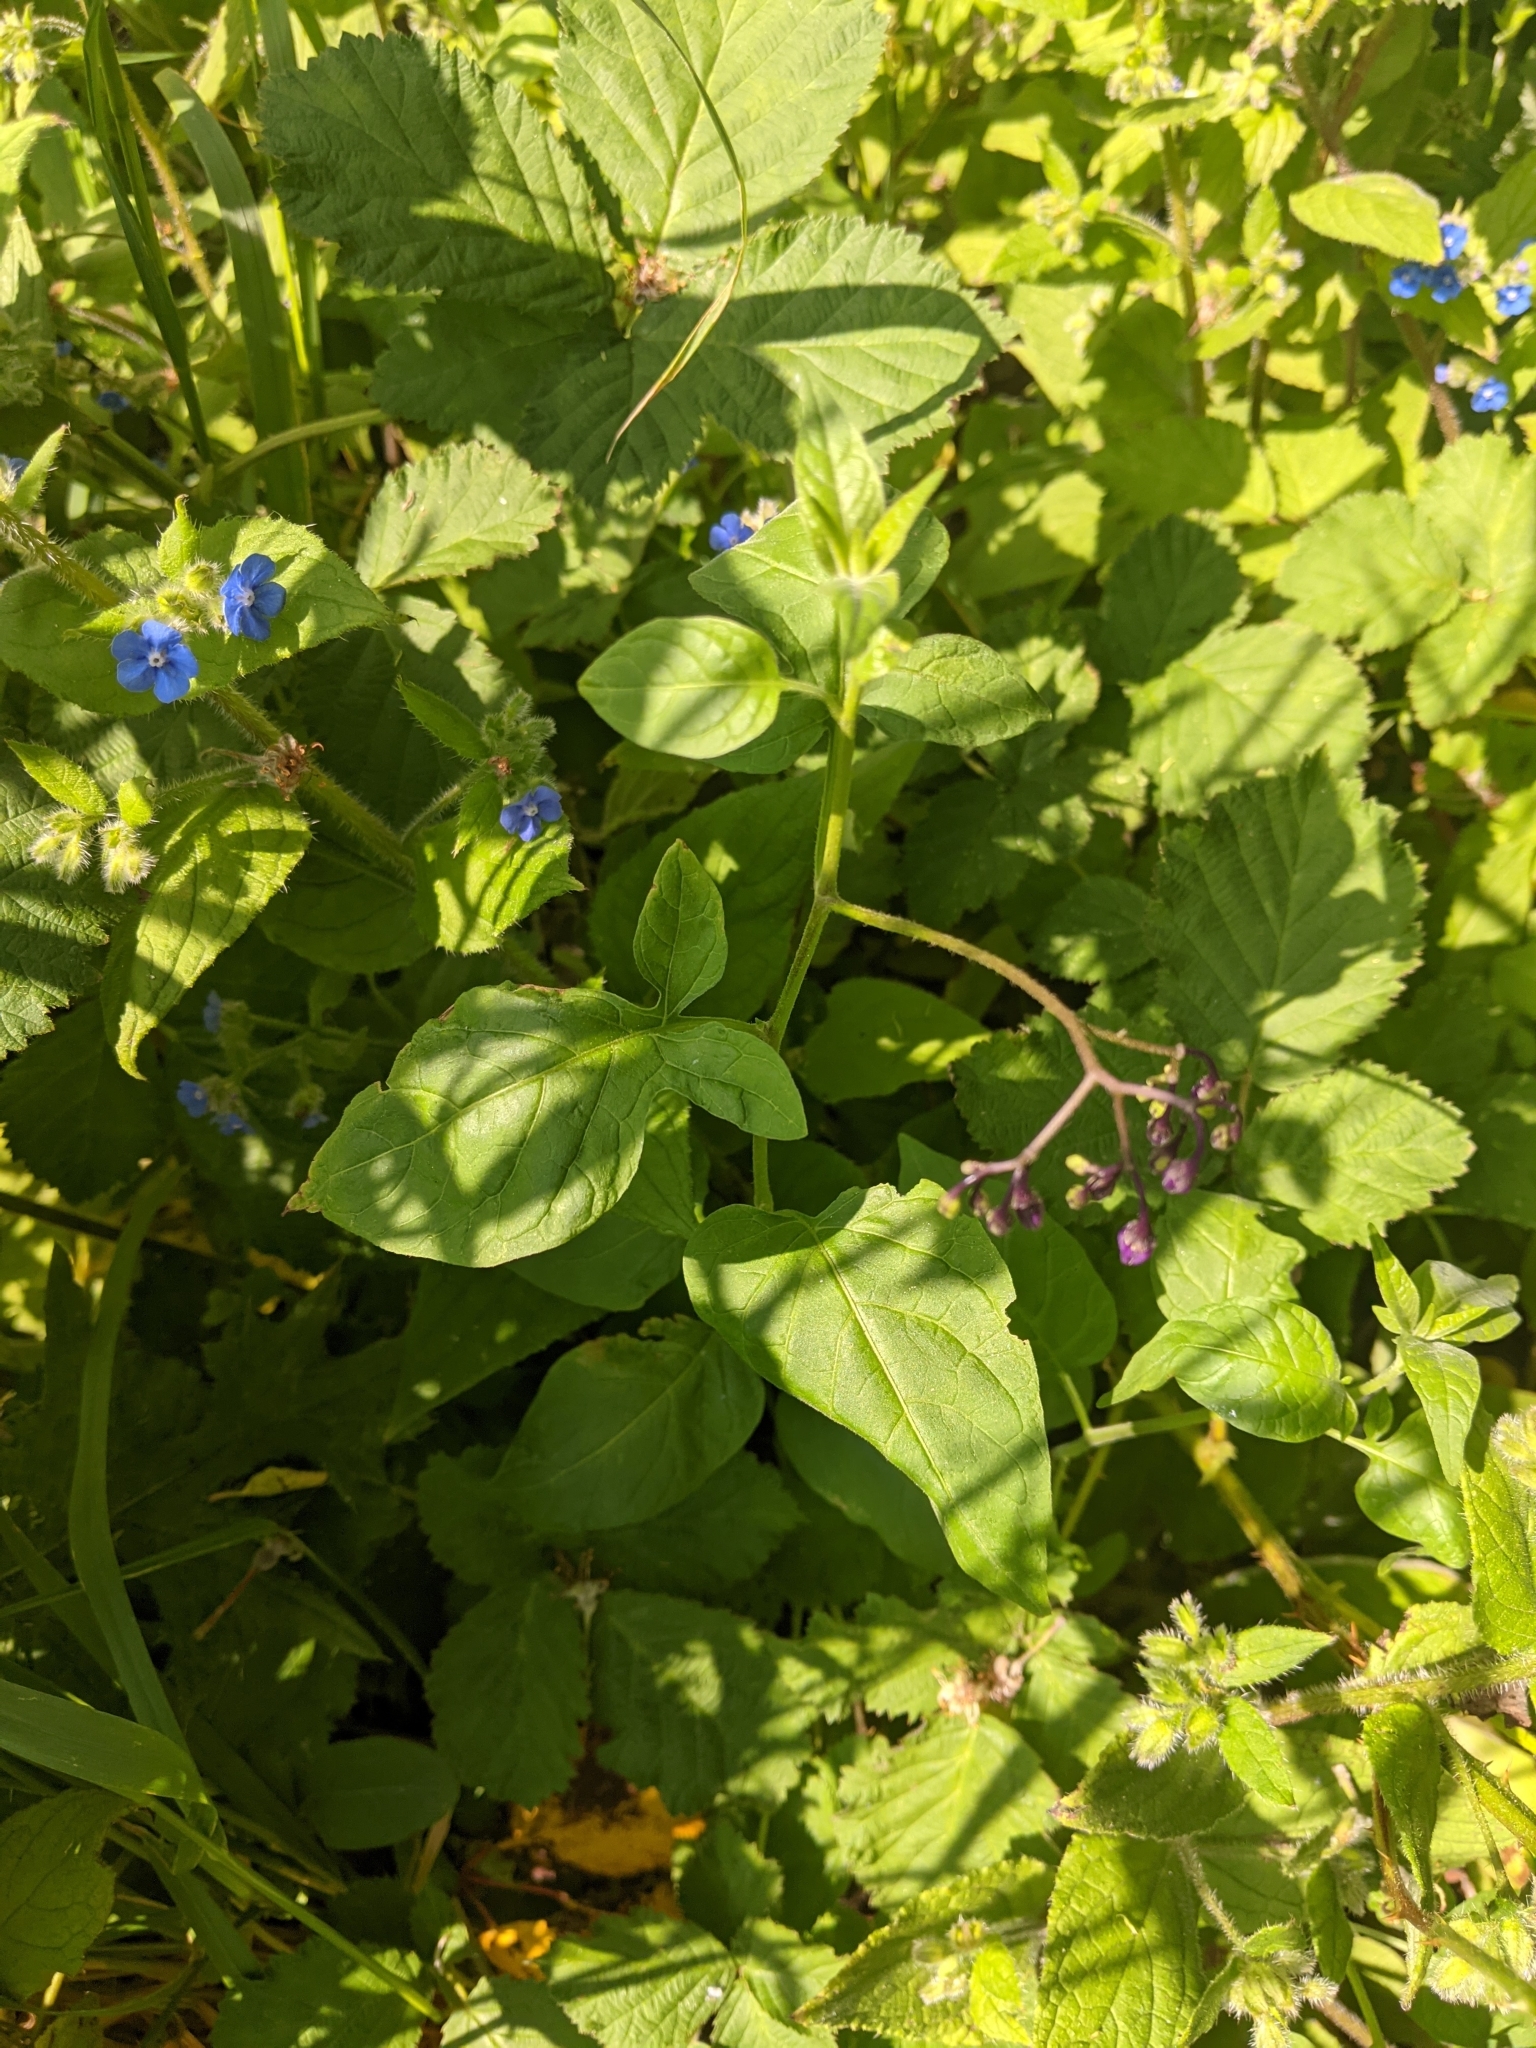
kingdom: Plantae
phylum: Tracheophyta
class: Magnoliopsida
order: Solanales
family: Solanaceae
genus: Solanum
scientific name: Solanum dulcamara
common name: Climbing nightshade
